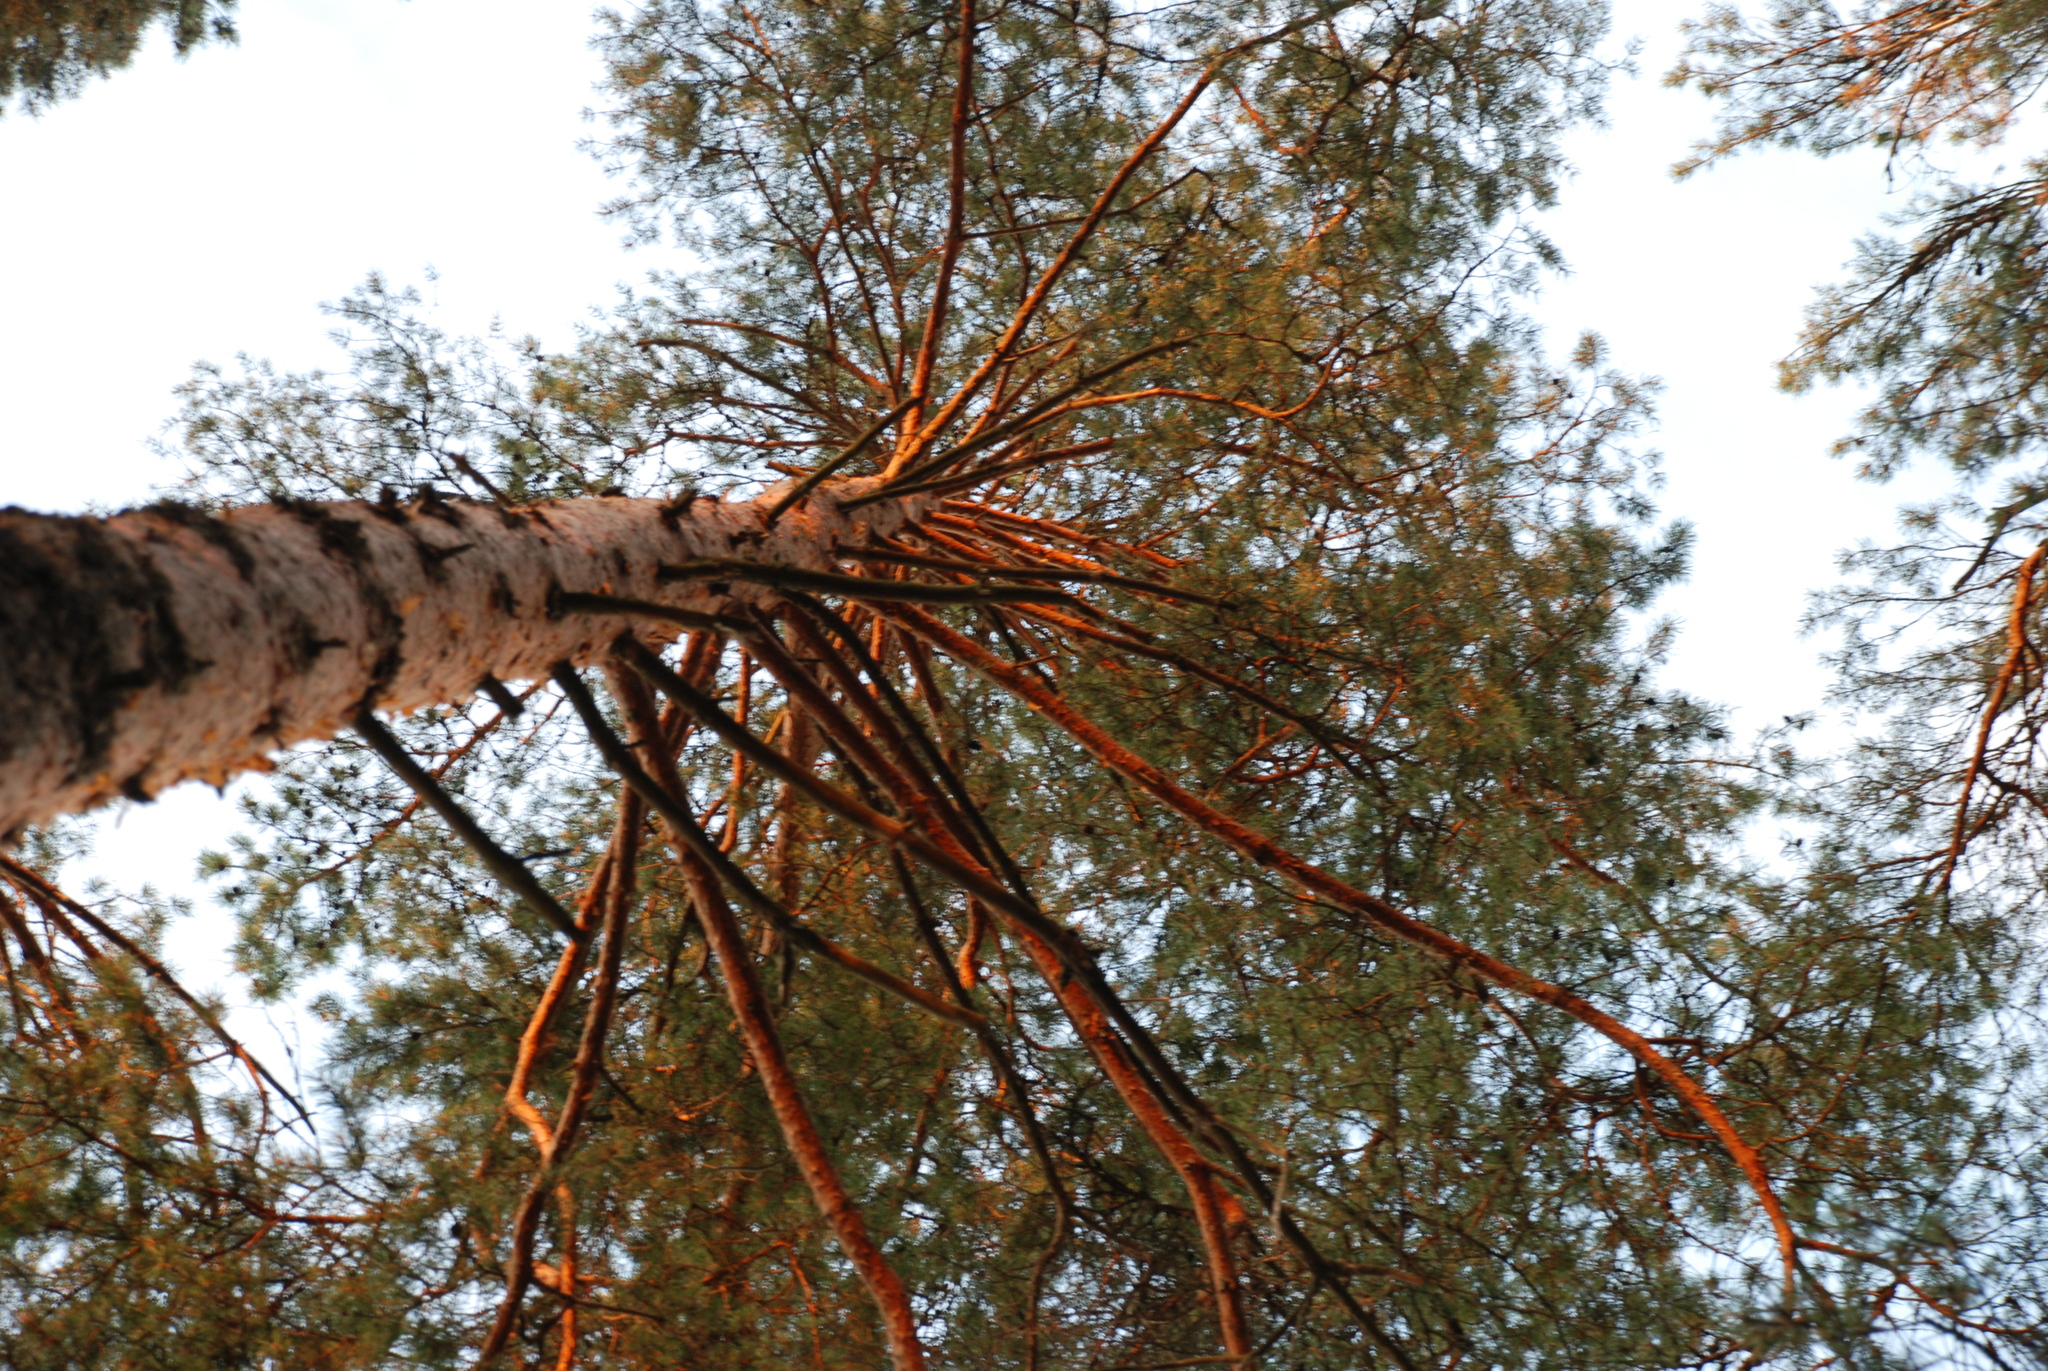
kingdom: Plantae
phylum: Tracheophyta
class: Pinopsida
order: Pinales
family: Pinaceae
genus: Pinus
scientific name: Pinus sylvestris
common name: Scots pine
